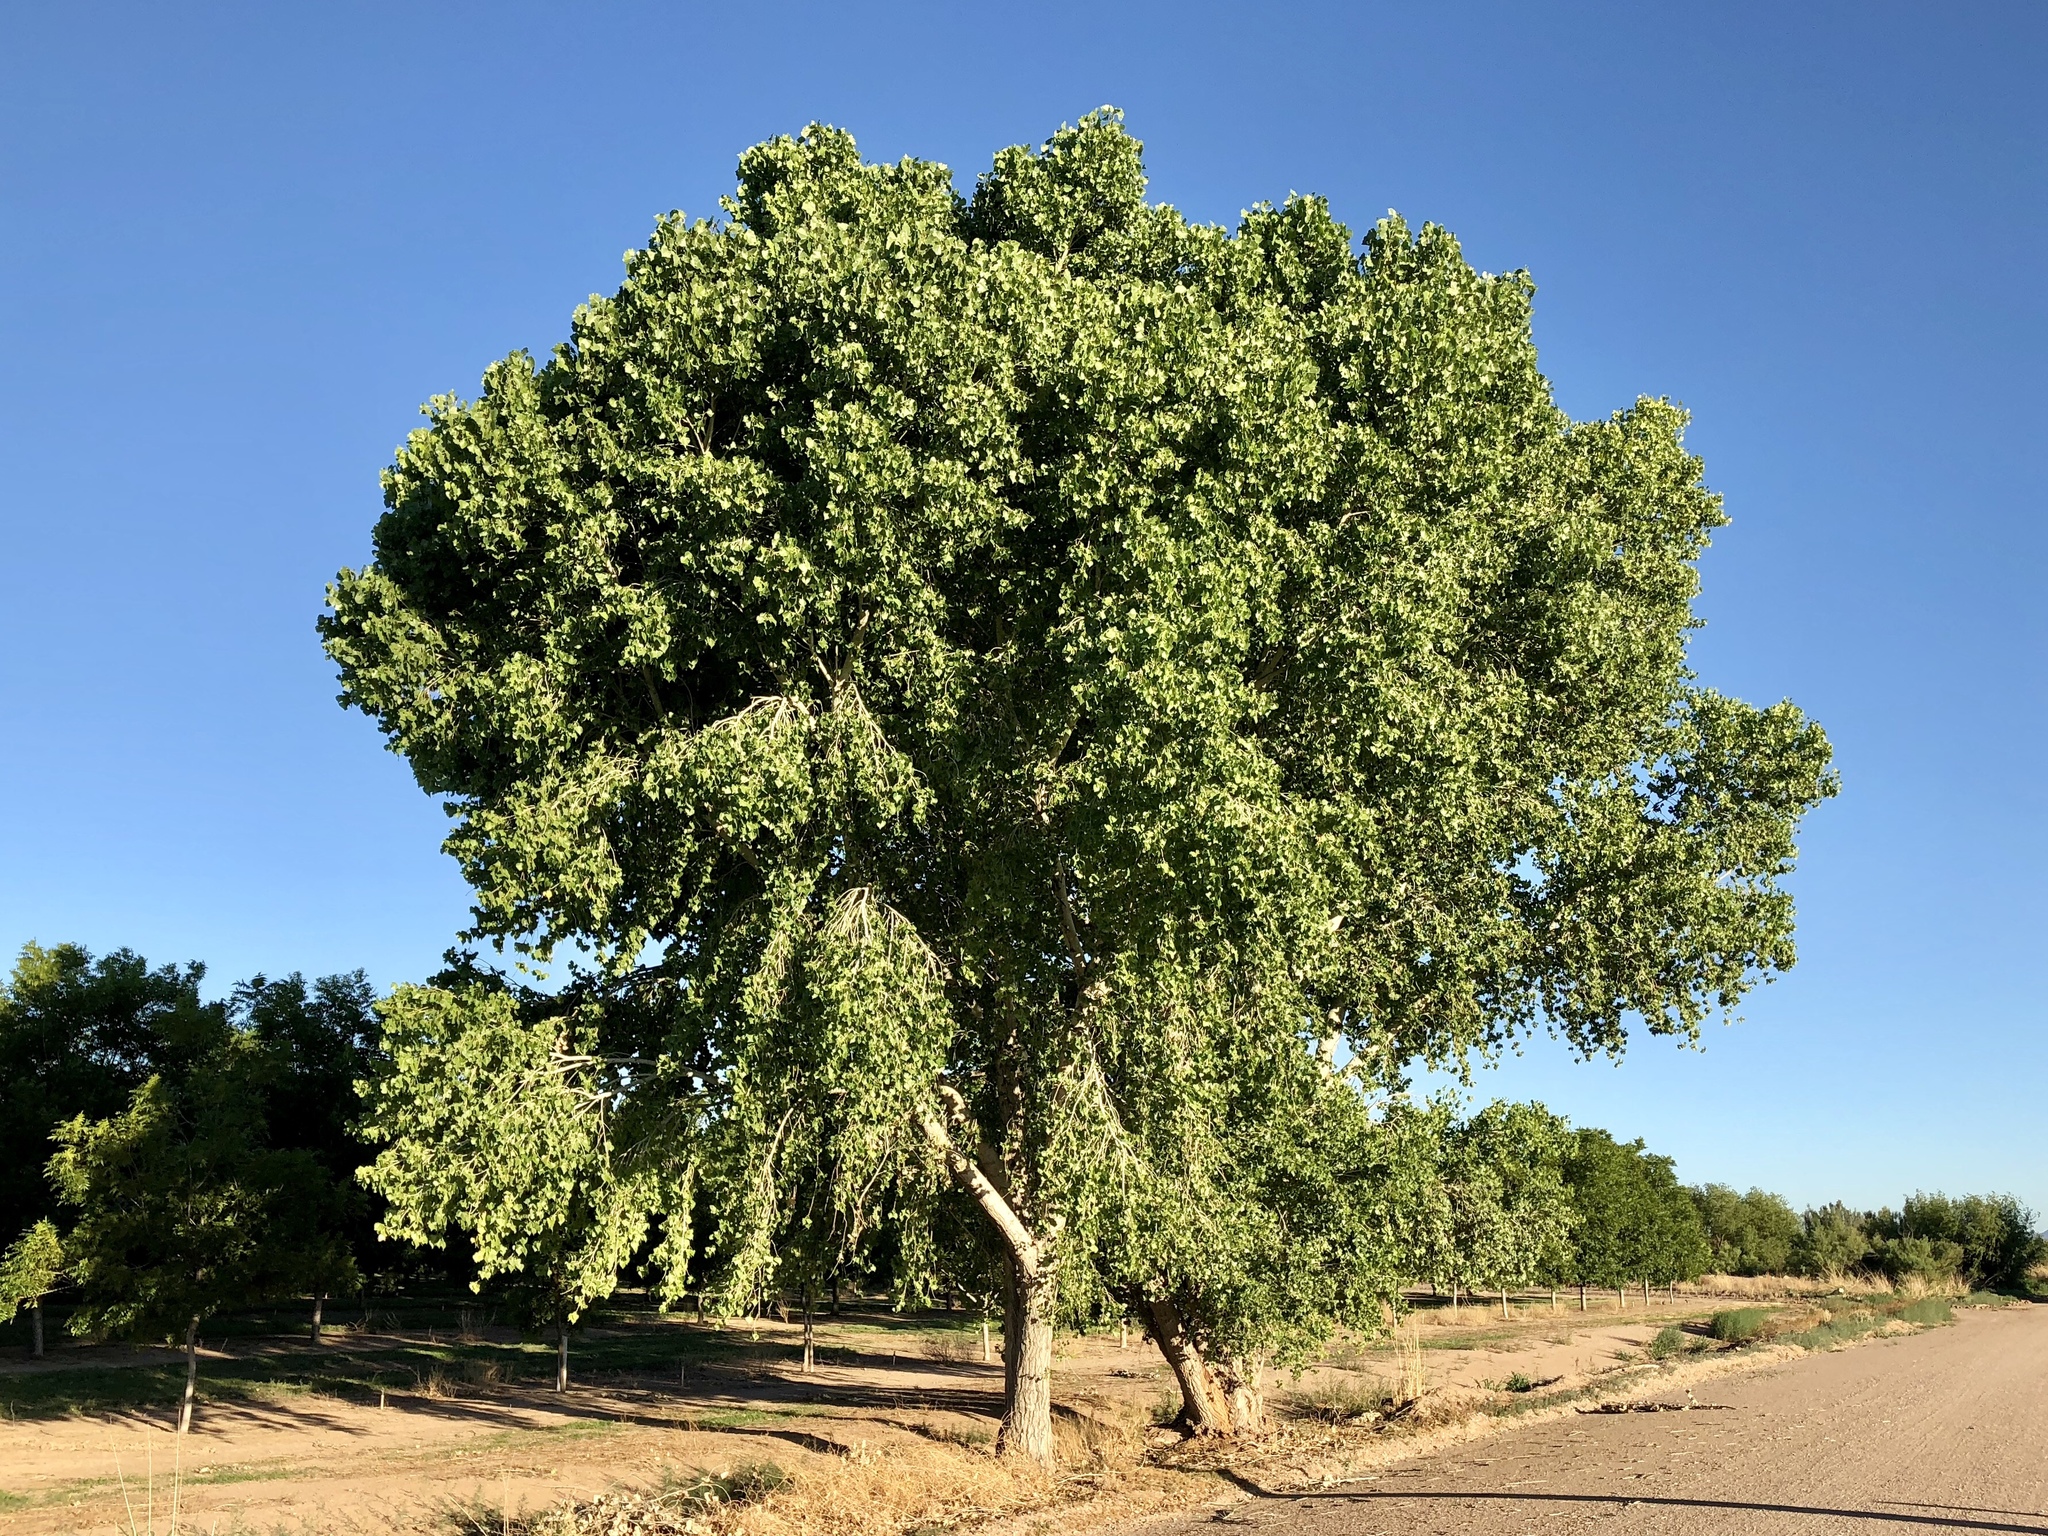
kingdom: Plantae
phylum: Tracheophyta
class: Magnoliopsida
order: Malpighiales
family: Salicaceae
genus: Populus
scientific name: Populus fremontii
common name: Fremont's cottonwood
